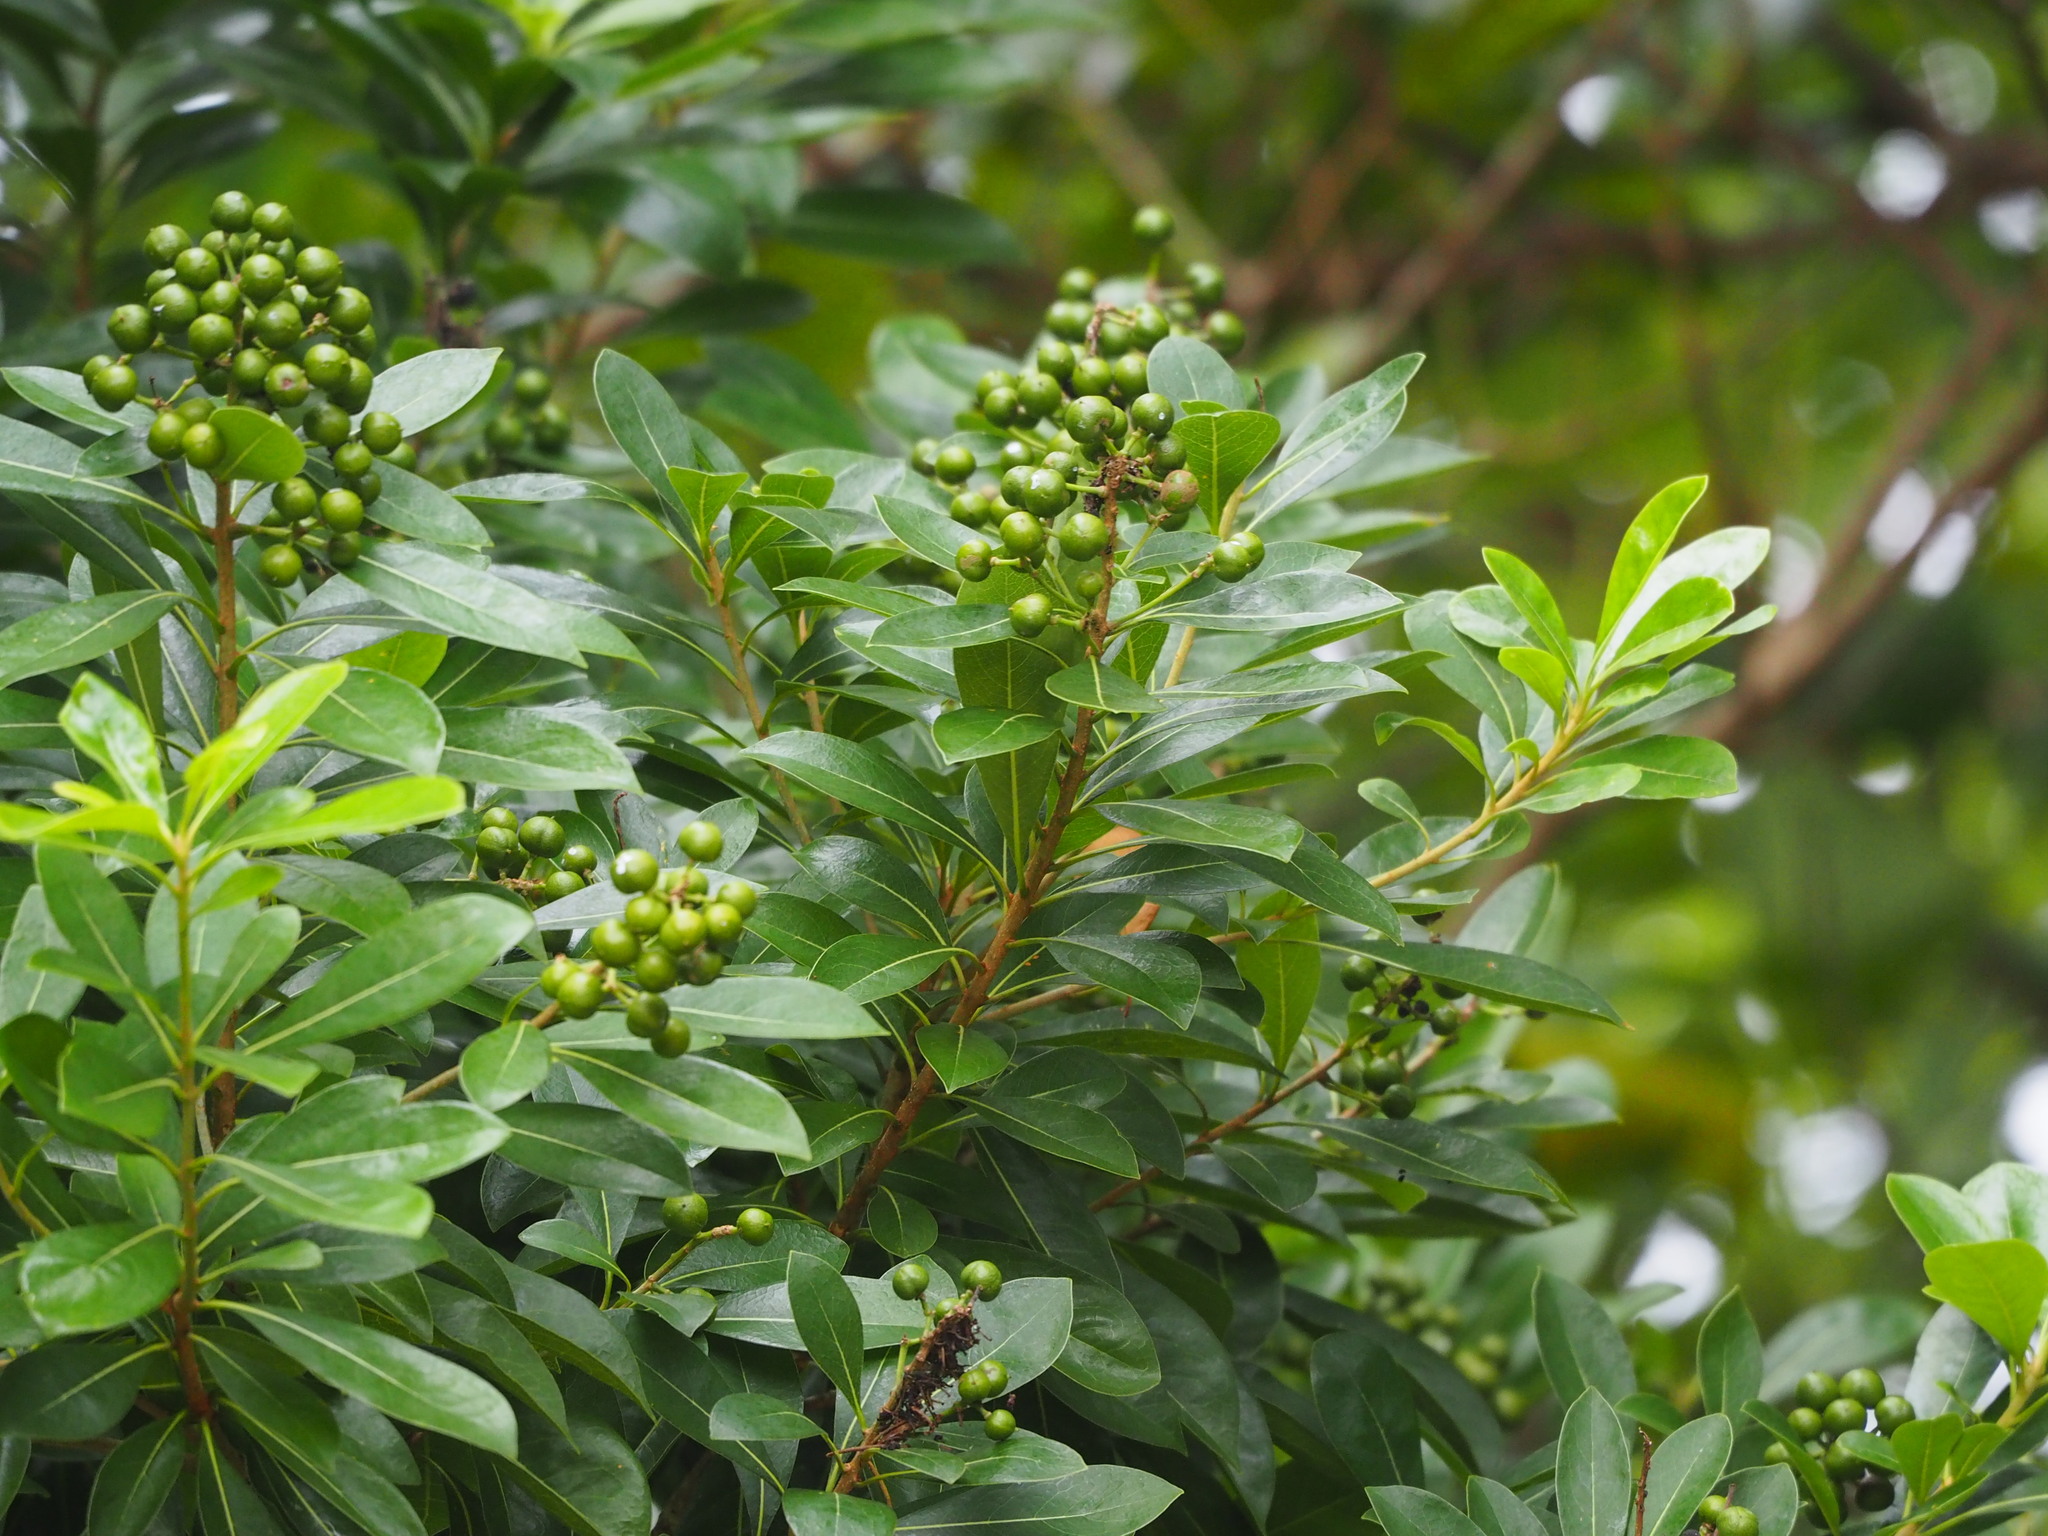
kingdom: Plantae
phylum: Tracheophyta
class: Magnoliopsida
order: Apiales
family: Pittosporaceae
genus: Pittosporum
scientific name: Pittosporum pentandrum
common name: Taiwanese cheesewood
